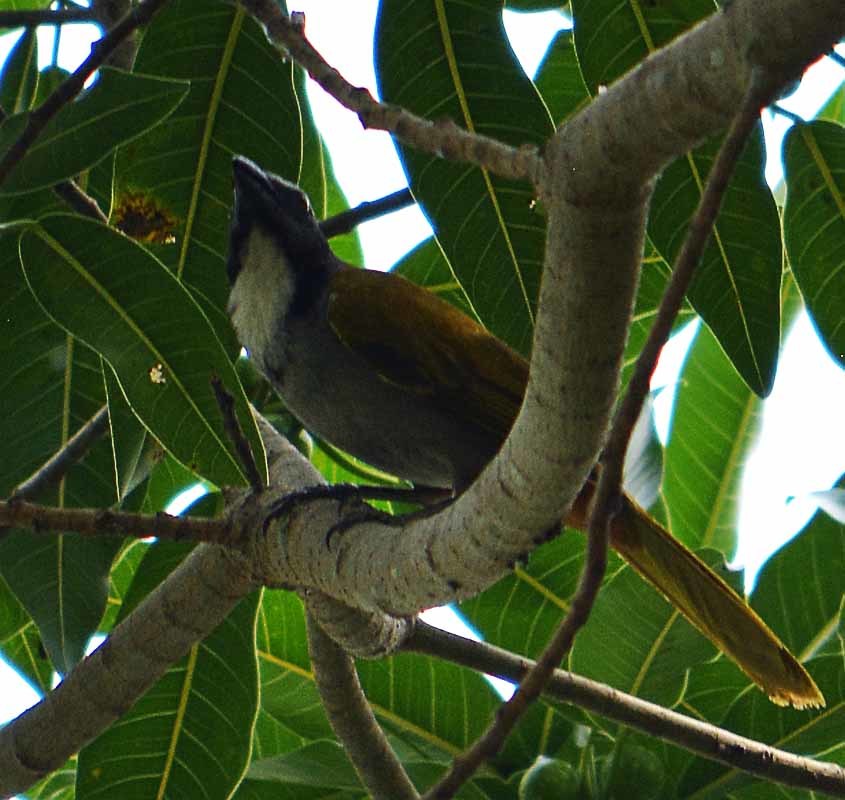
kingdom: Animalia
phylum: Chordata
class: Aves
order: Passeriformes
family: Thraupidae
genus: Saltator
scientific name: Saltator atriceps
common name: Black-headed saltator
